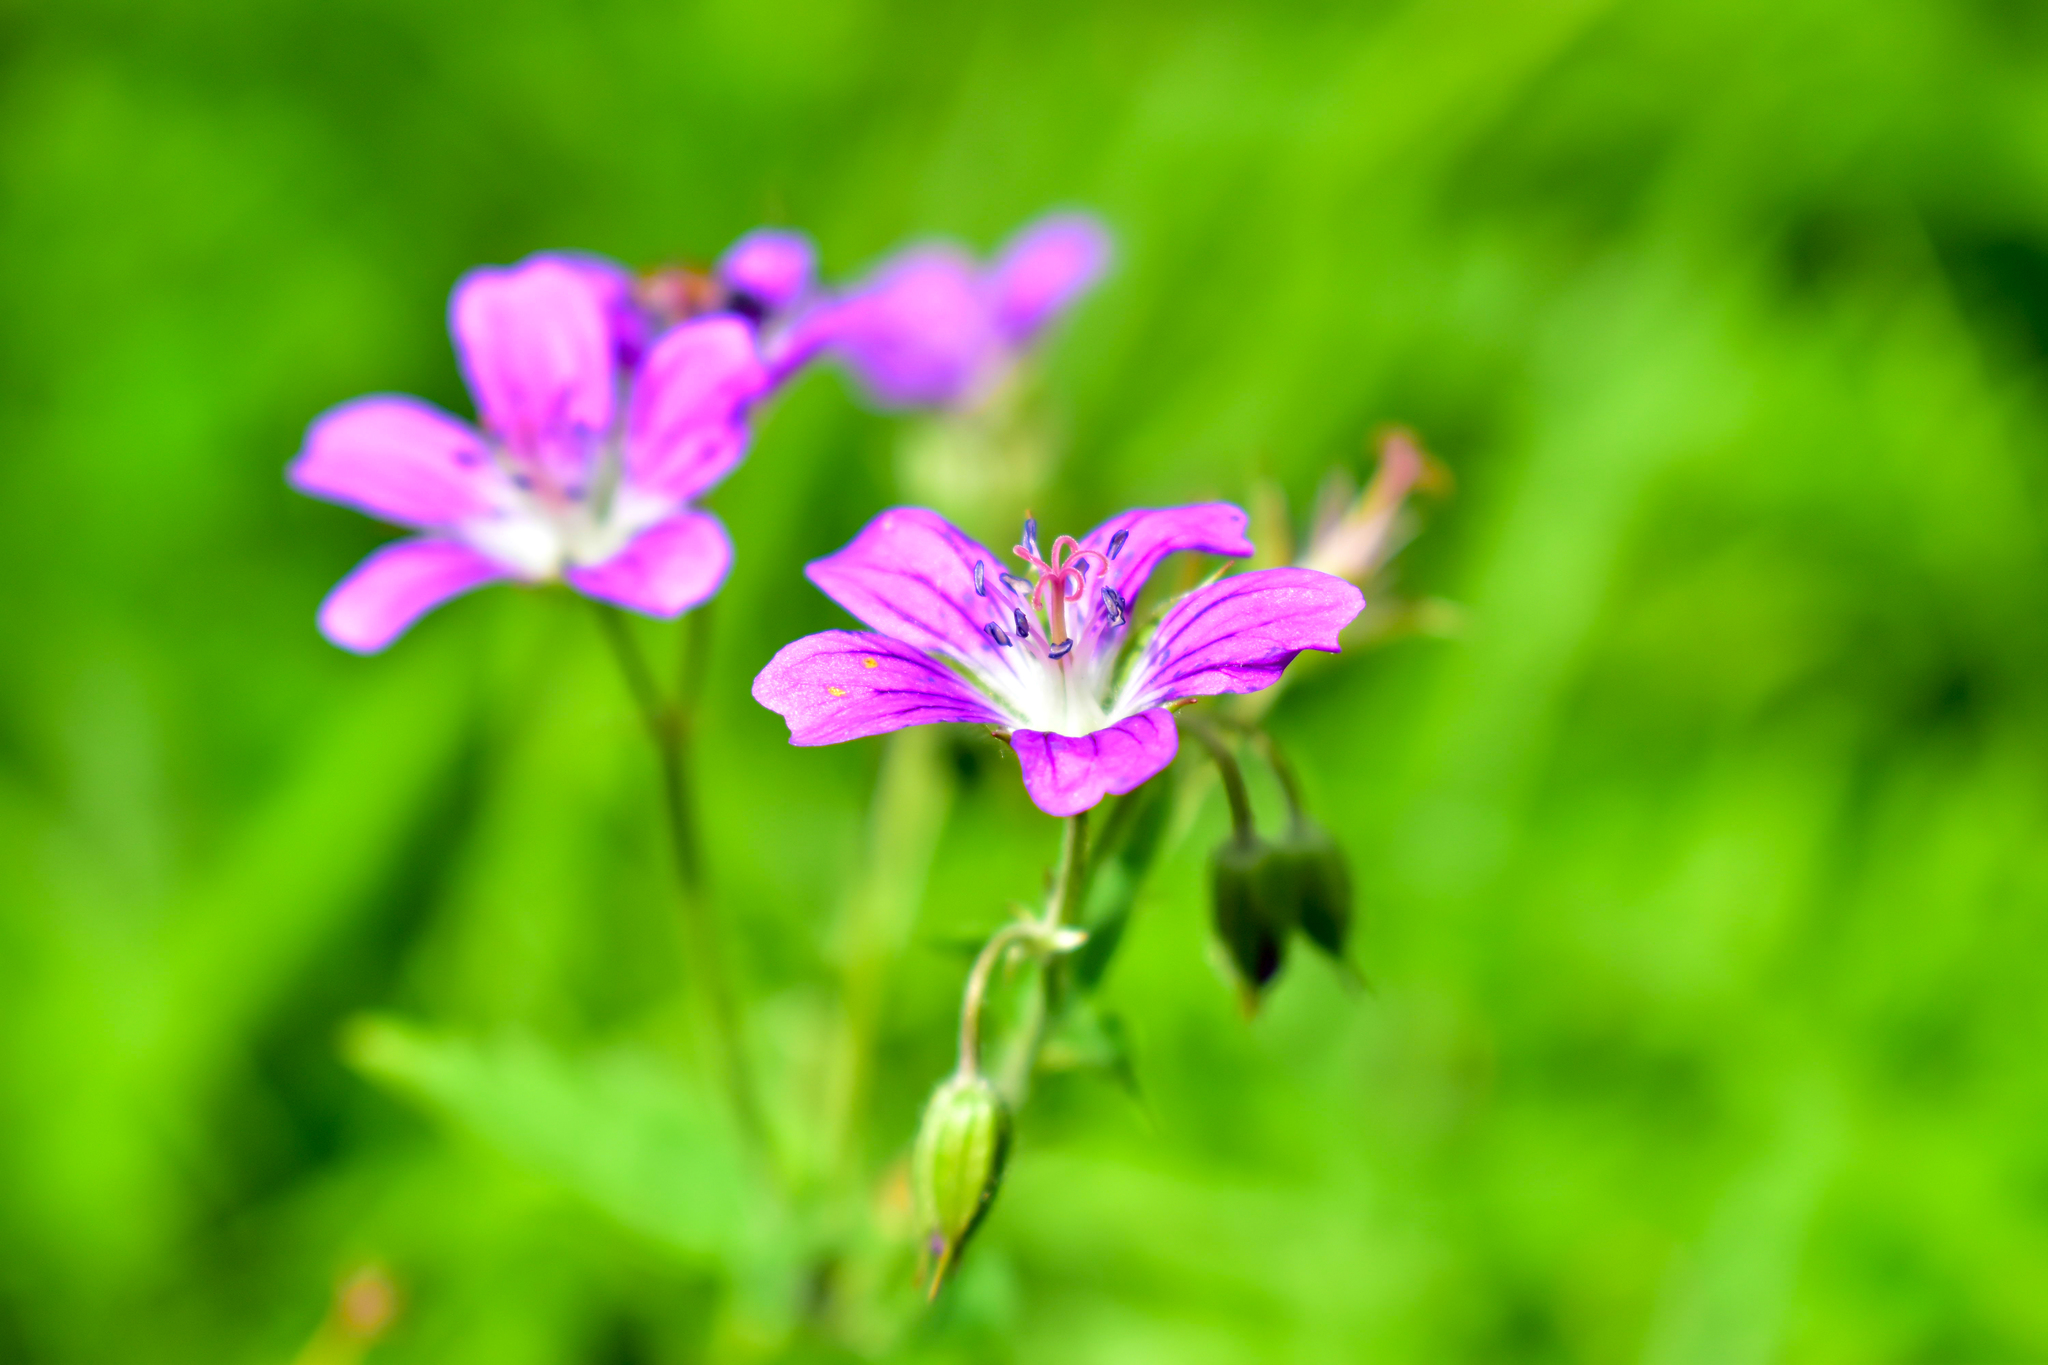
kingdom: Plantae
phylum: Tracheophyta
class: Magnoliopsida
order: Geraniales
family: Geraniaceae
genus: Geranium
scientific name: Geranium sylvaticum
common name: Wood crane's-bill
